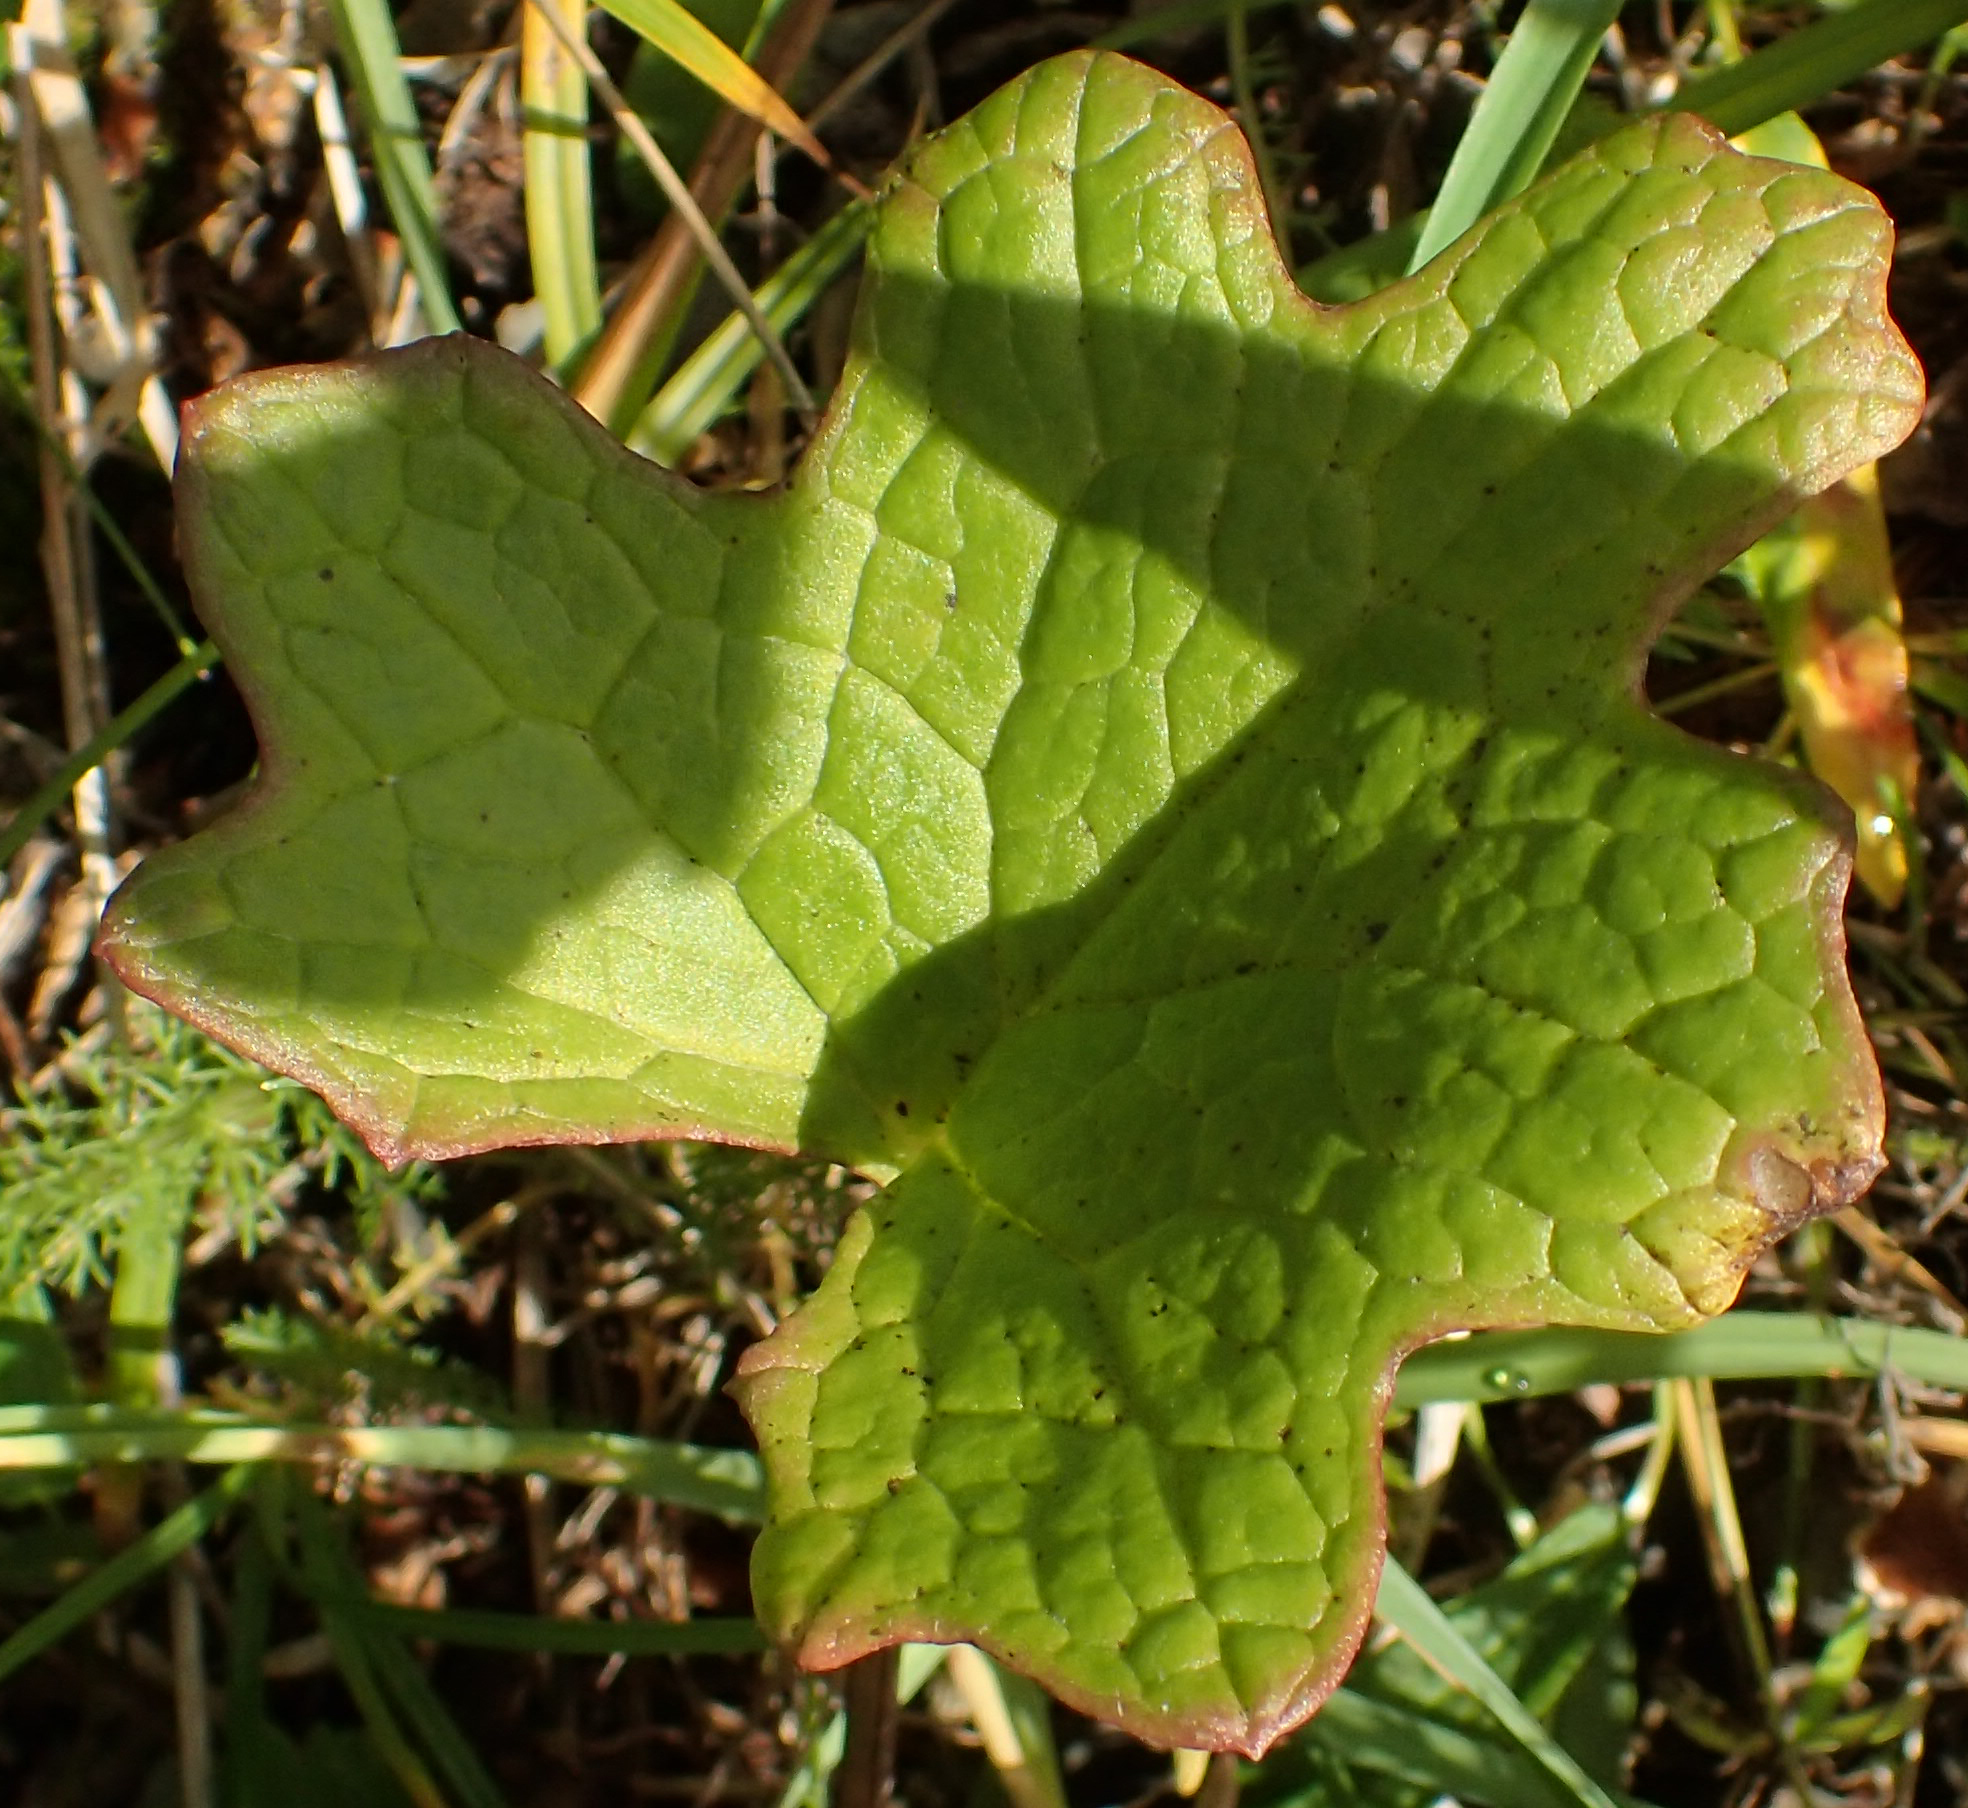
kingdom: Plantae
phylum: Tracheophyta
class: Magnoliopsida
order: Asterales
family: Asteraceae
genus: Petasites
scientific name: Petasites frigidus
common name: Arctic butterbur
